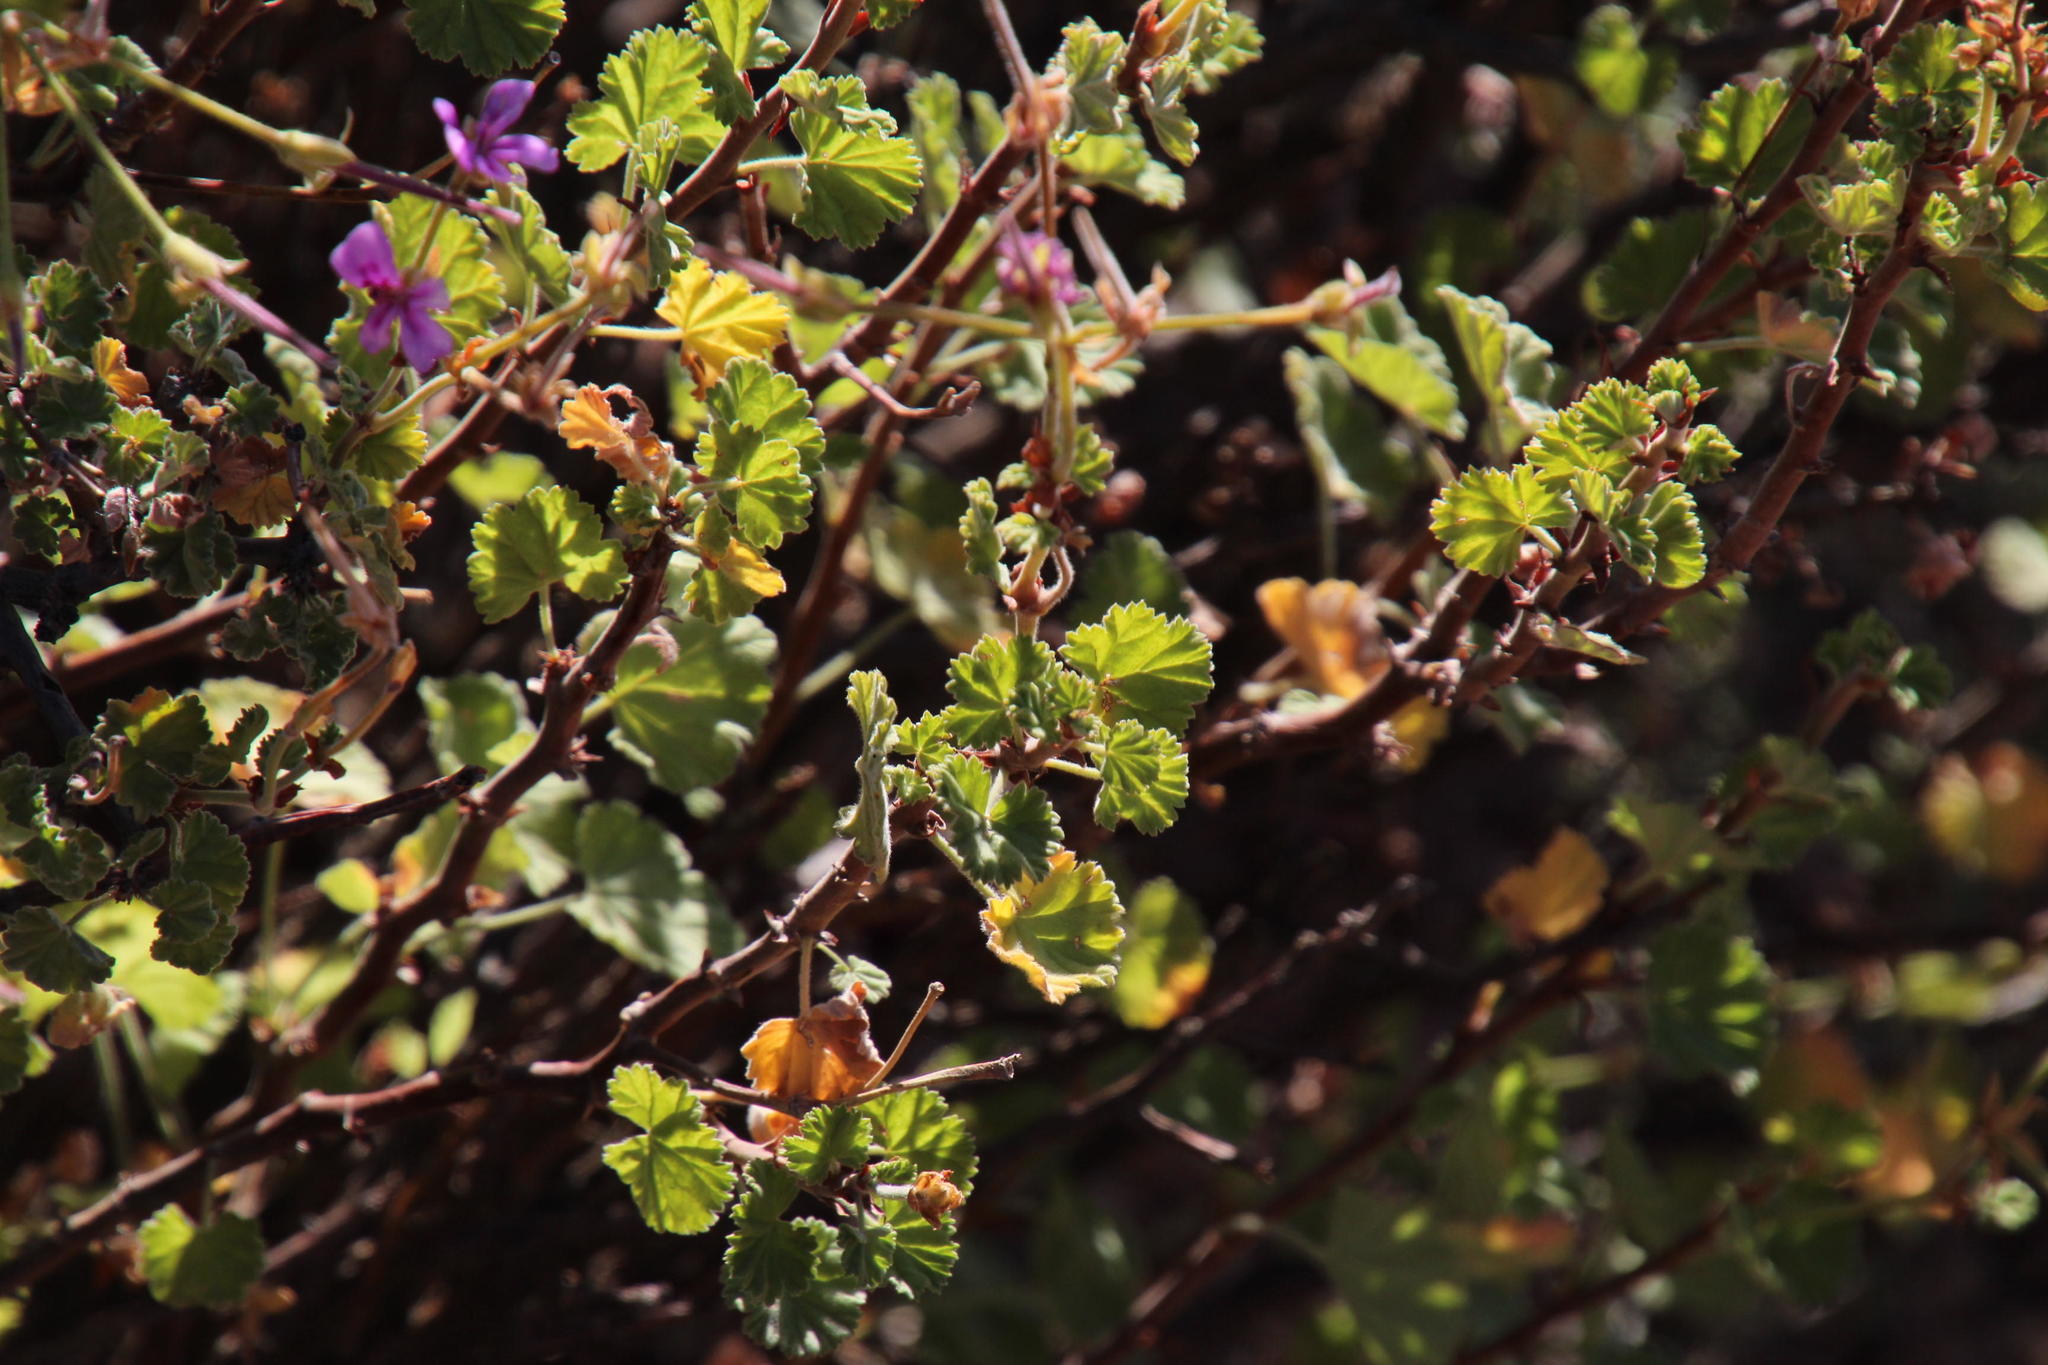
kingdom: Plantae
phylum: Tracheophyta
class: Magnoliopsida
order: Geraniales
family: Geraniaceae
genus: Pelargonium
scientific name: Pelargonium magenteum
